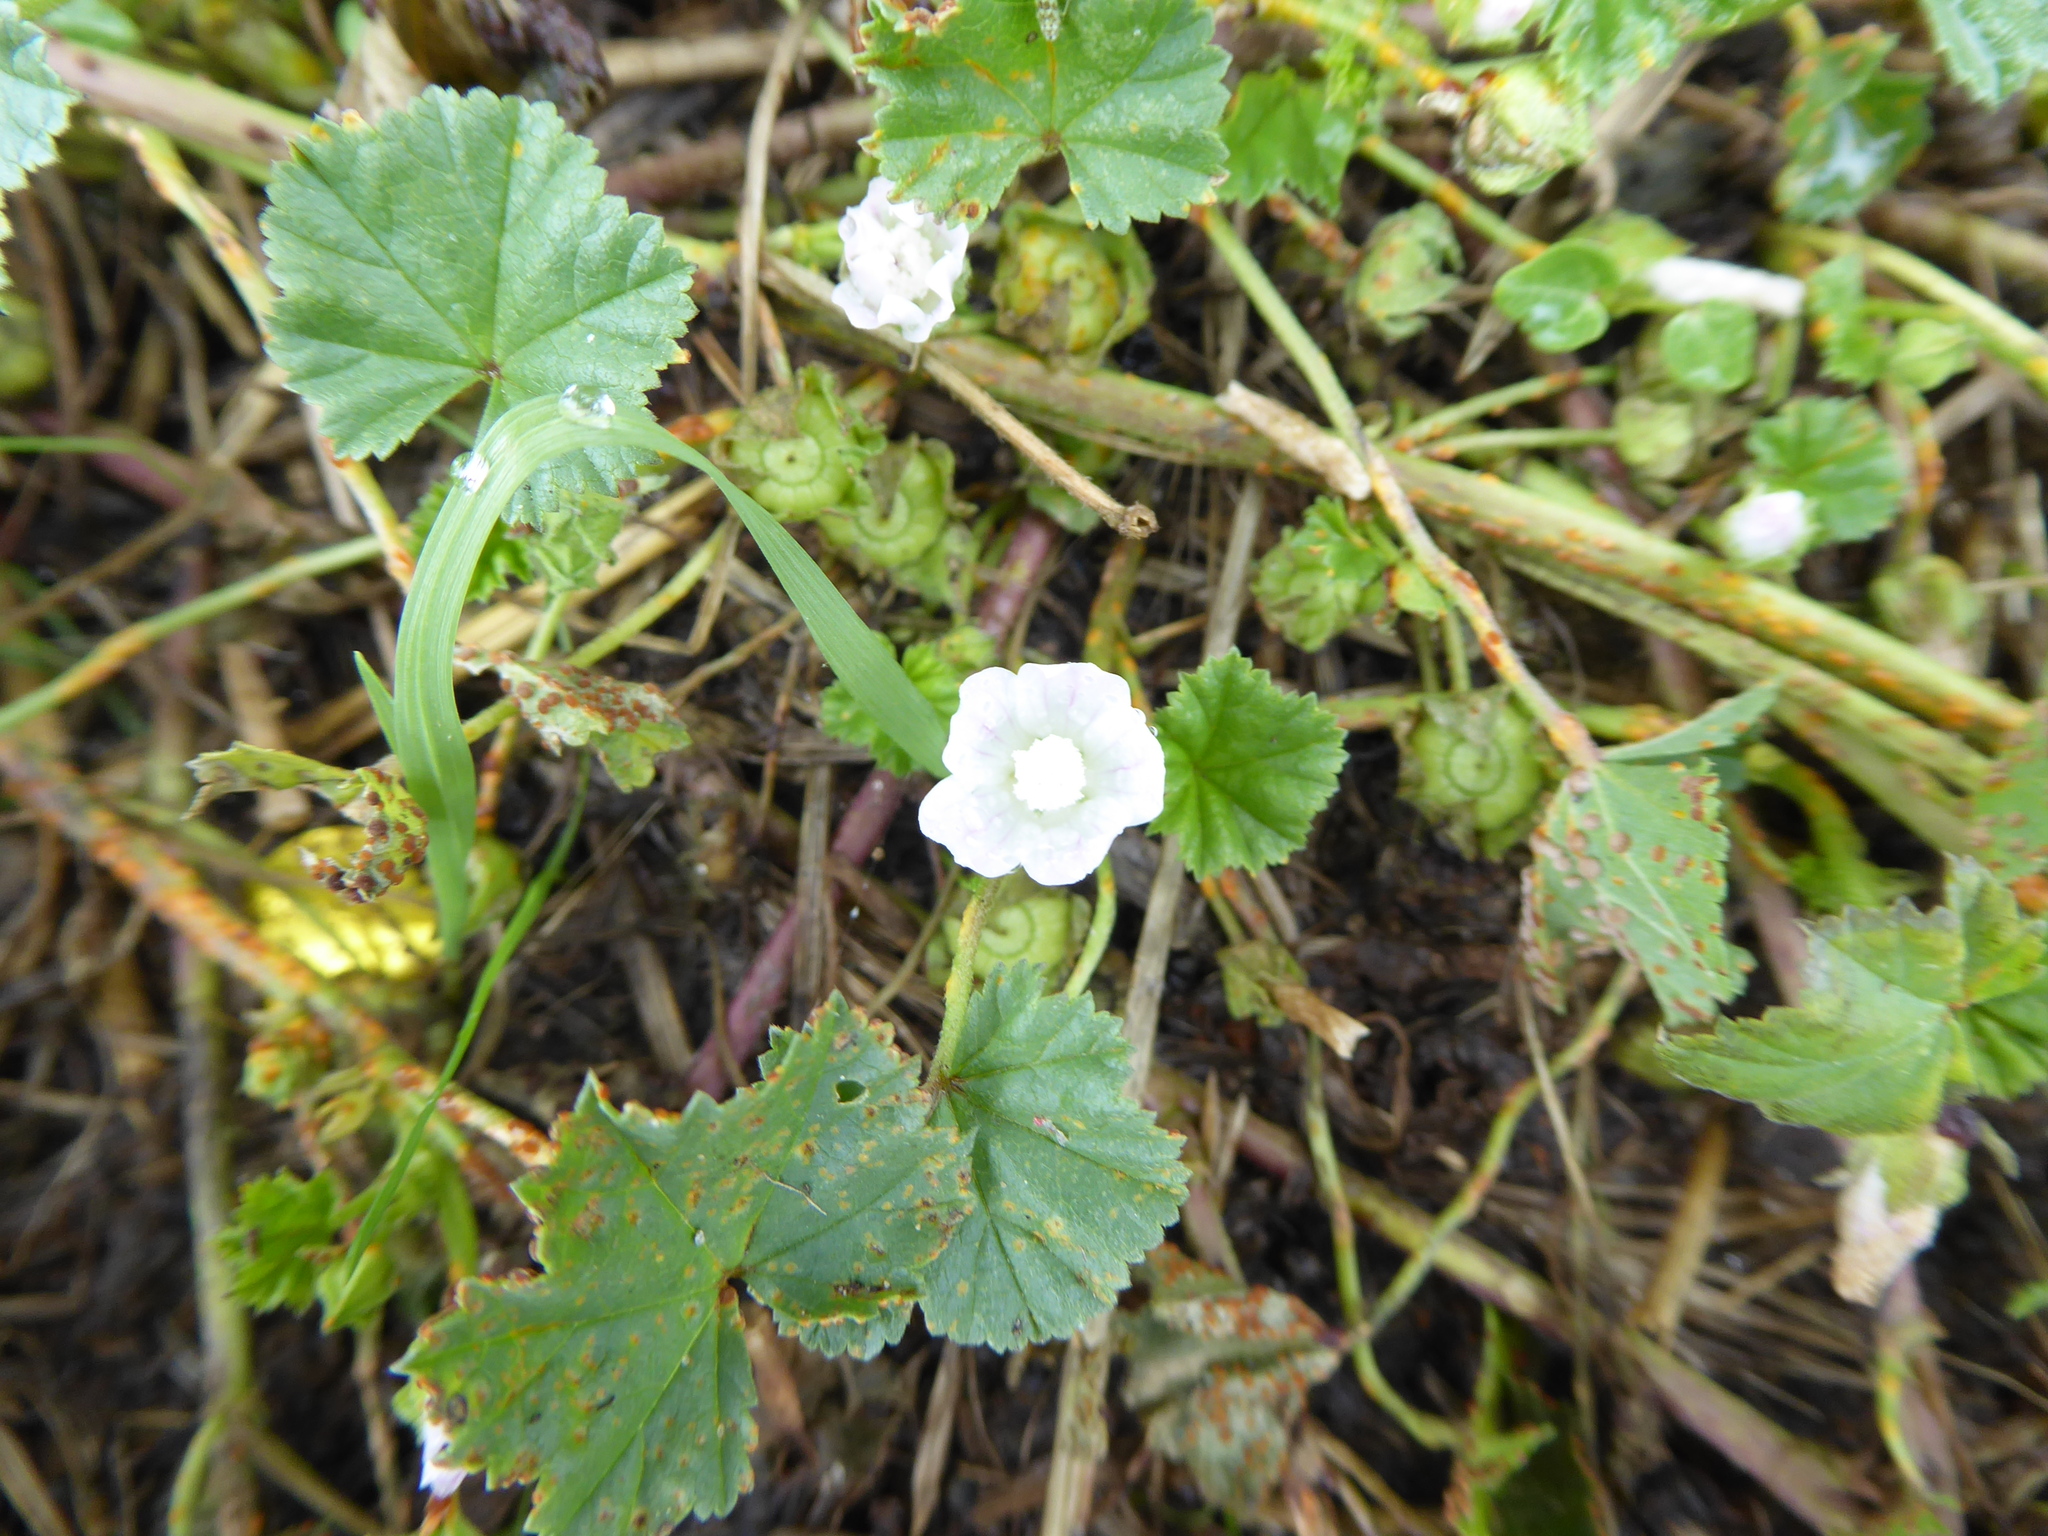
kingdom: Plantae
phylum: Tracheophyta
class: Magnoliopsida
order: Malvales
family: Malvaceae
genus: Malva
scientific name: Malva neglecta
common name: Common mallow
